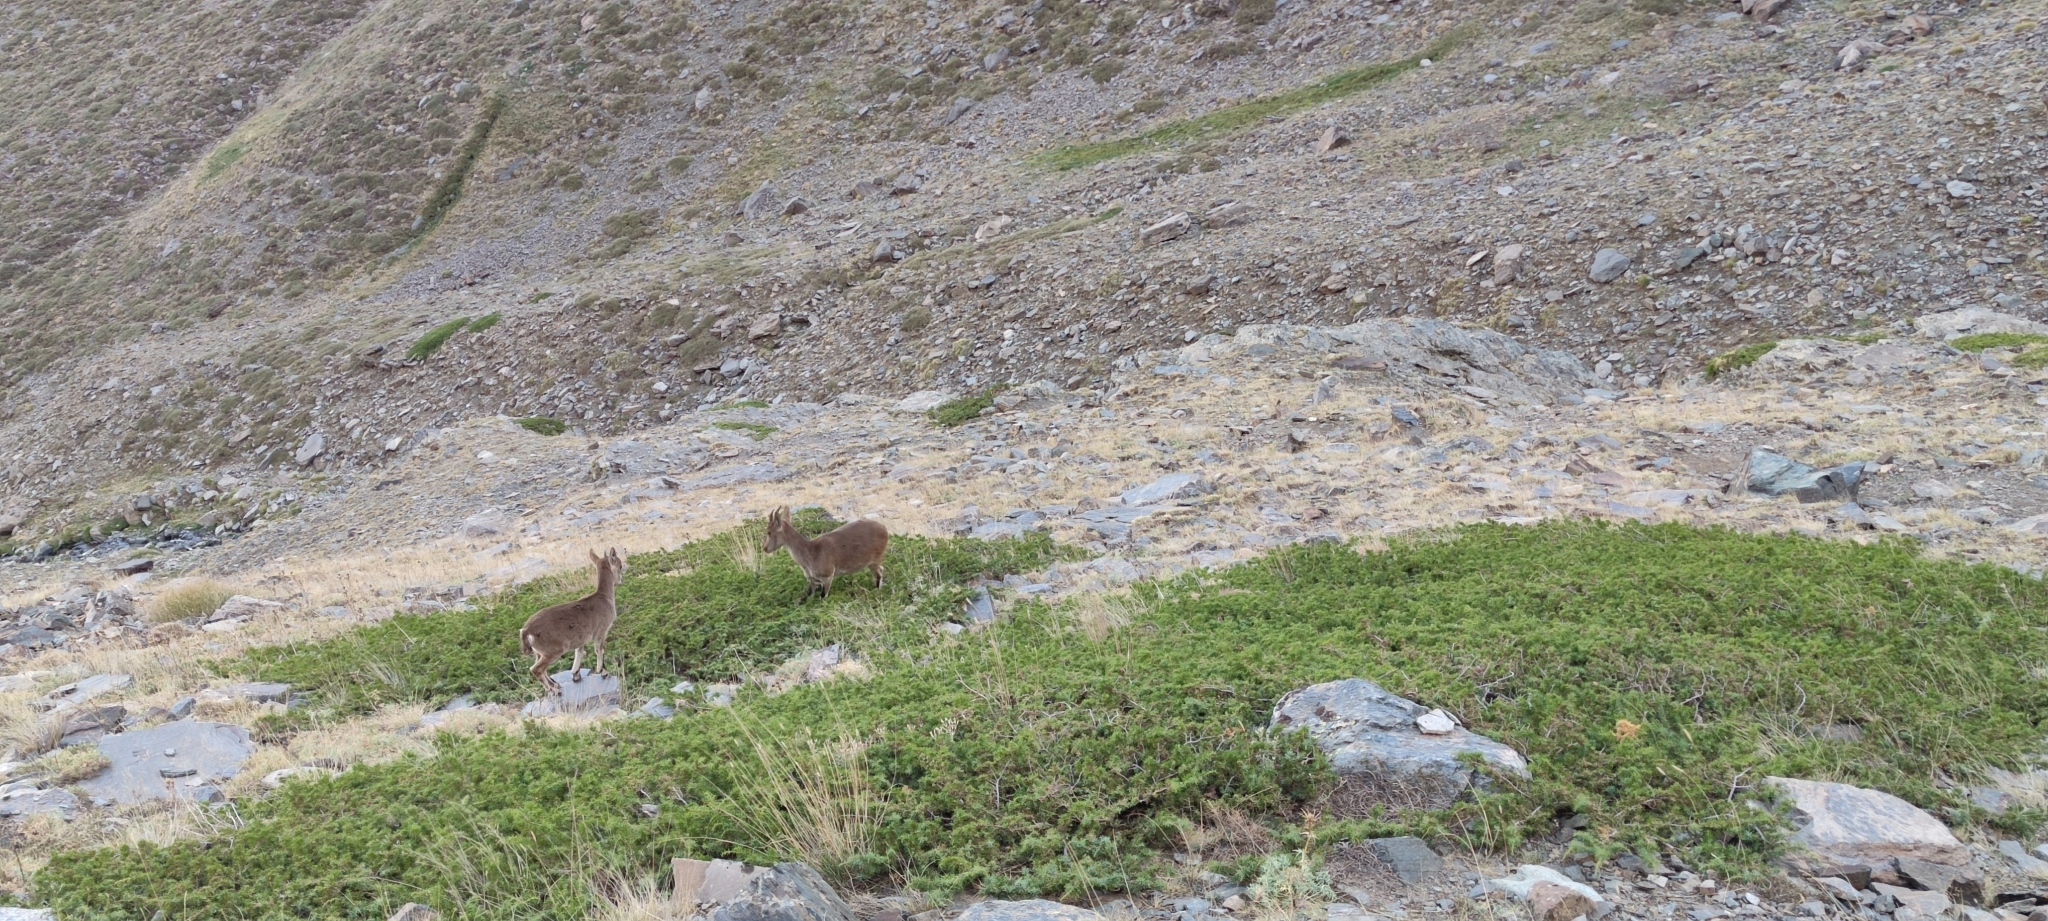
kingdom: Animalia
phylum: Chordata
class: Mammalia
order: Artiodactyla
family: Bovidae
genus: Capra
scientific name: Capra pyrenaica
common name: Spanish ibex
